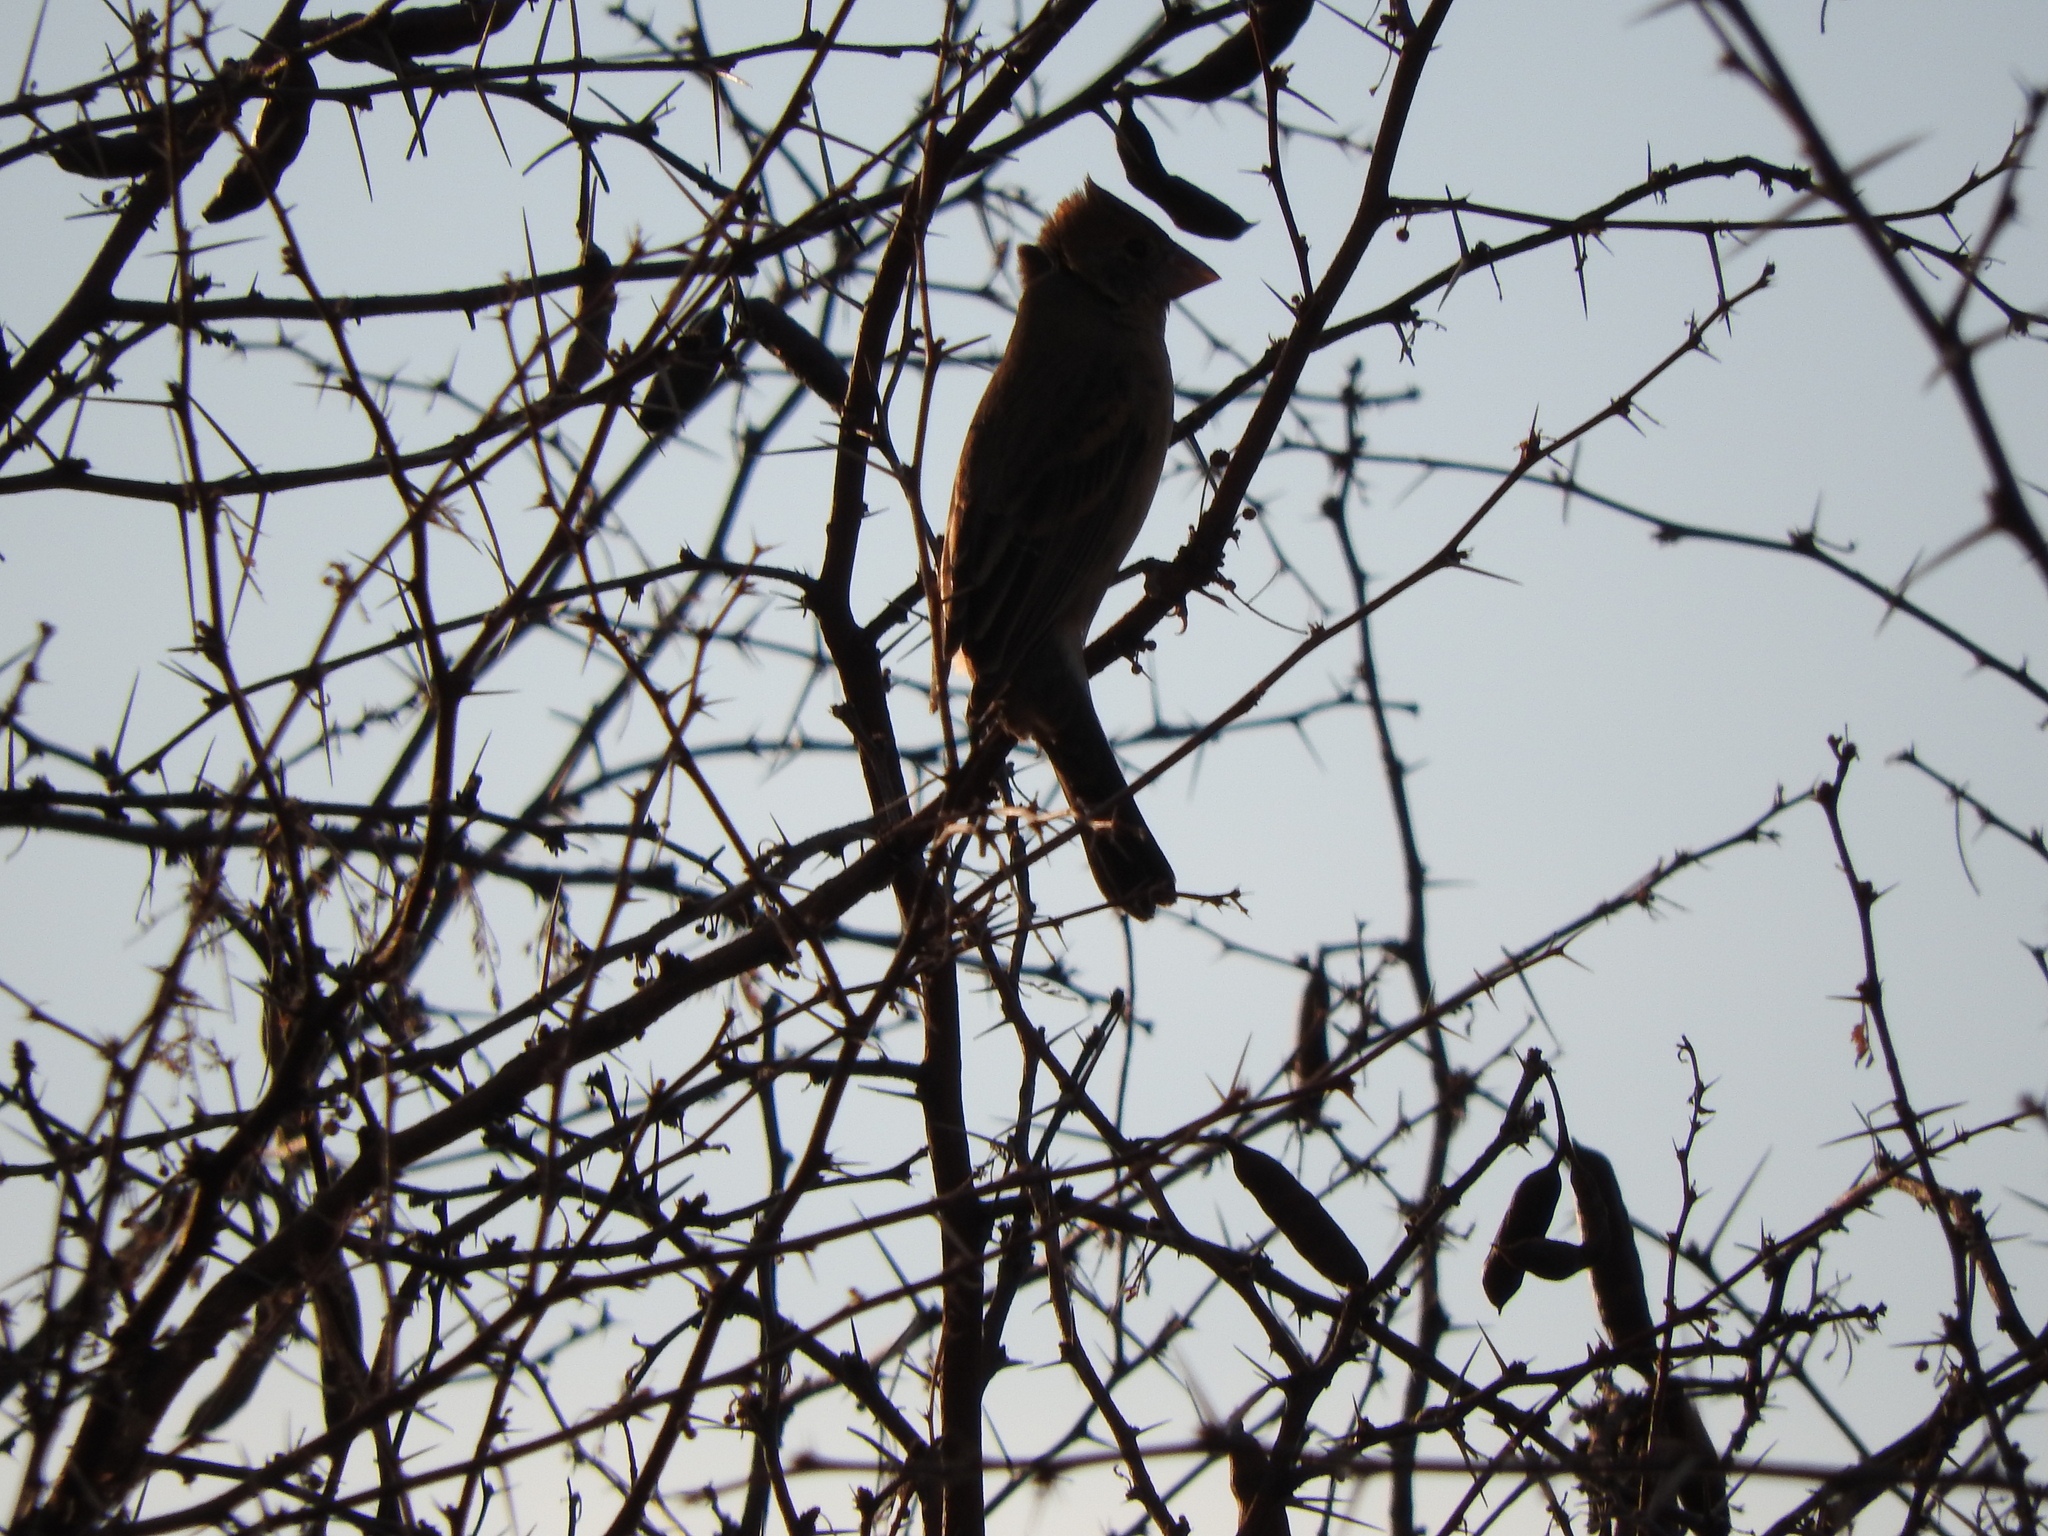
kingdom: Animalia
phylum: Chordata
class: Aves
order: Passeriformes
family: Cardinalidae
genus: Passerina
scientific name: Passerina caerulea
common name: Blue grosbeak
